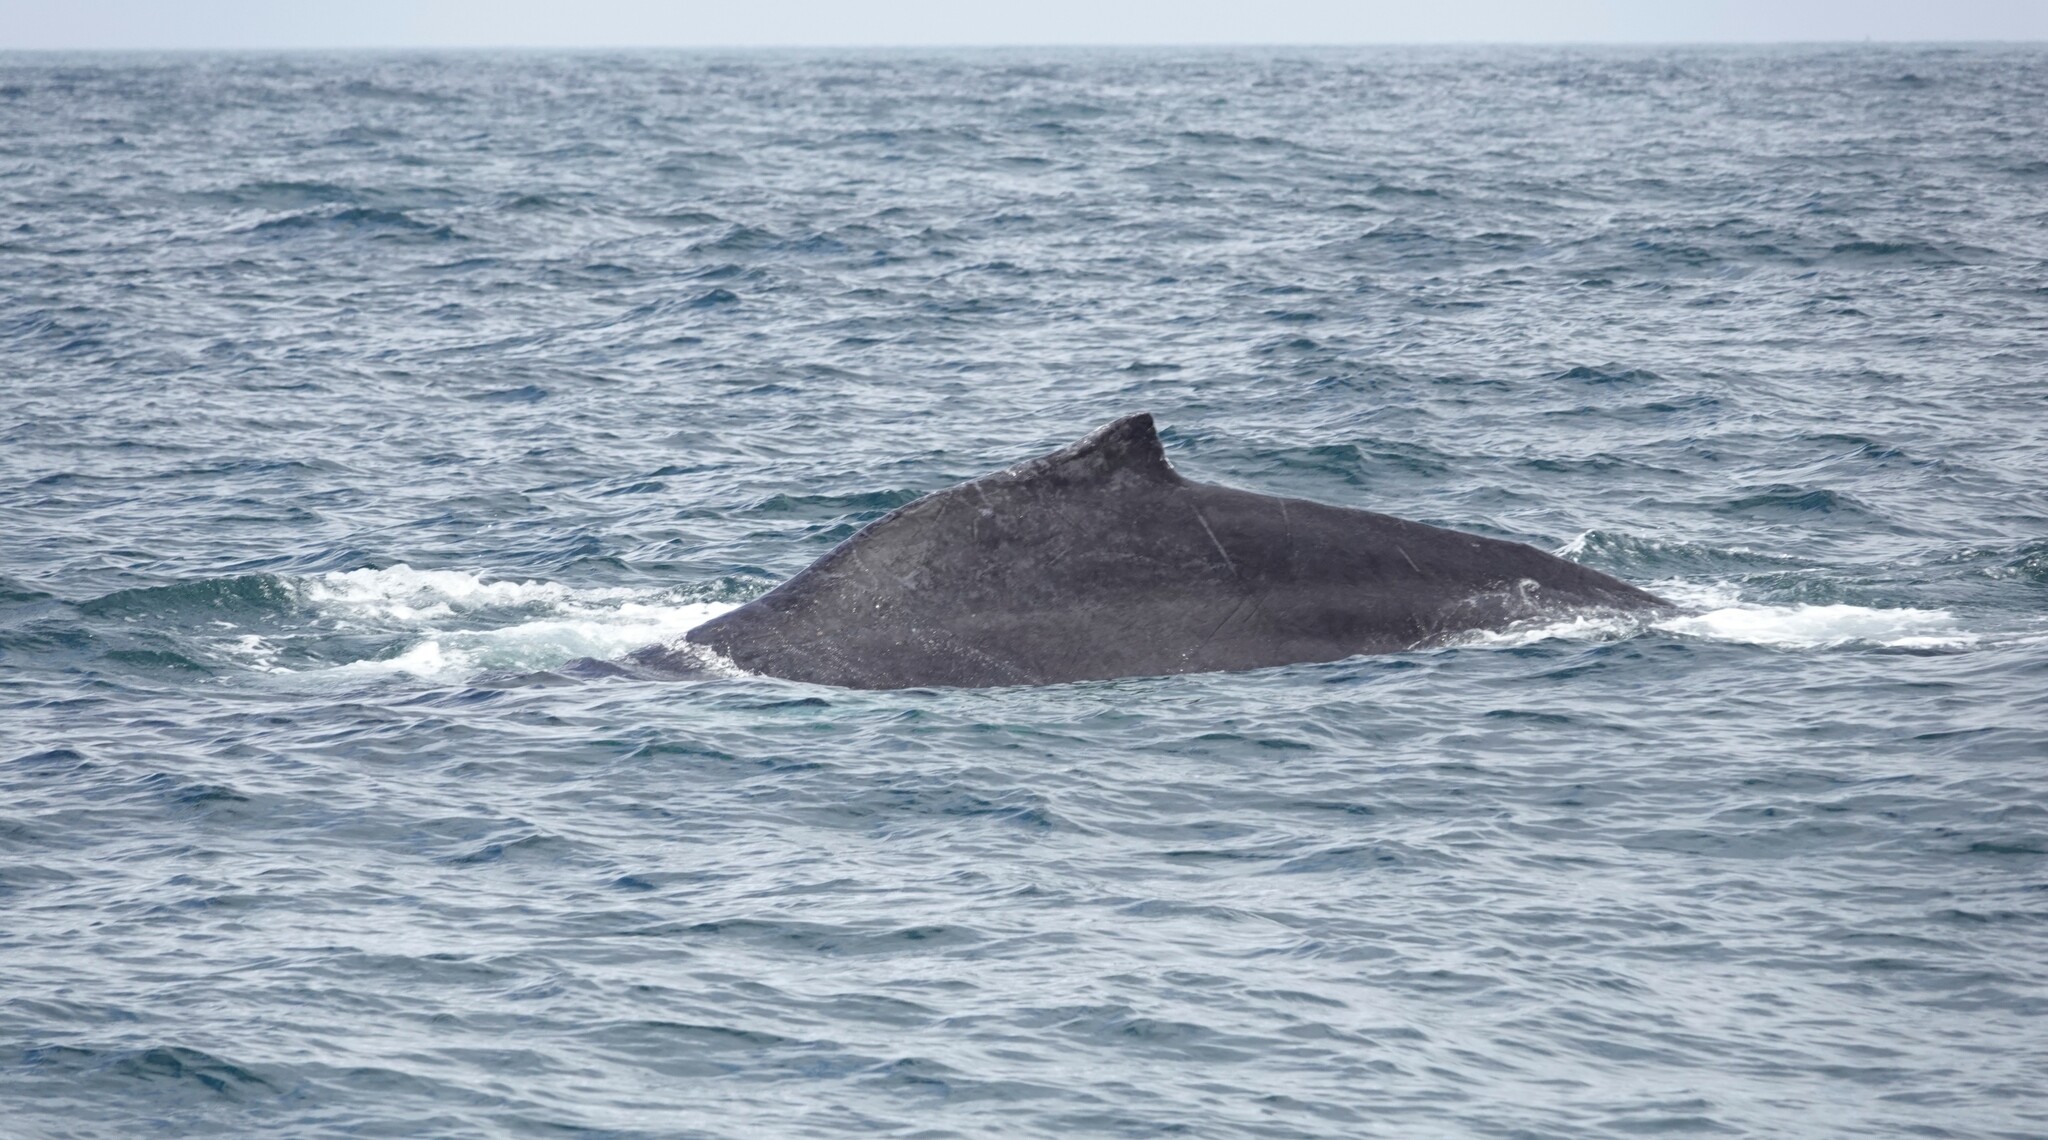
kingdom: Animalia
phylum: Chordata
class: Mammalia
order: Cetacea
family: Balaenopteridae
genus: Megaptera
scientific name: Megaptera novaeangliae
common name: Humpback whale
